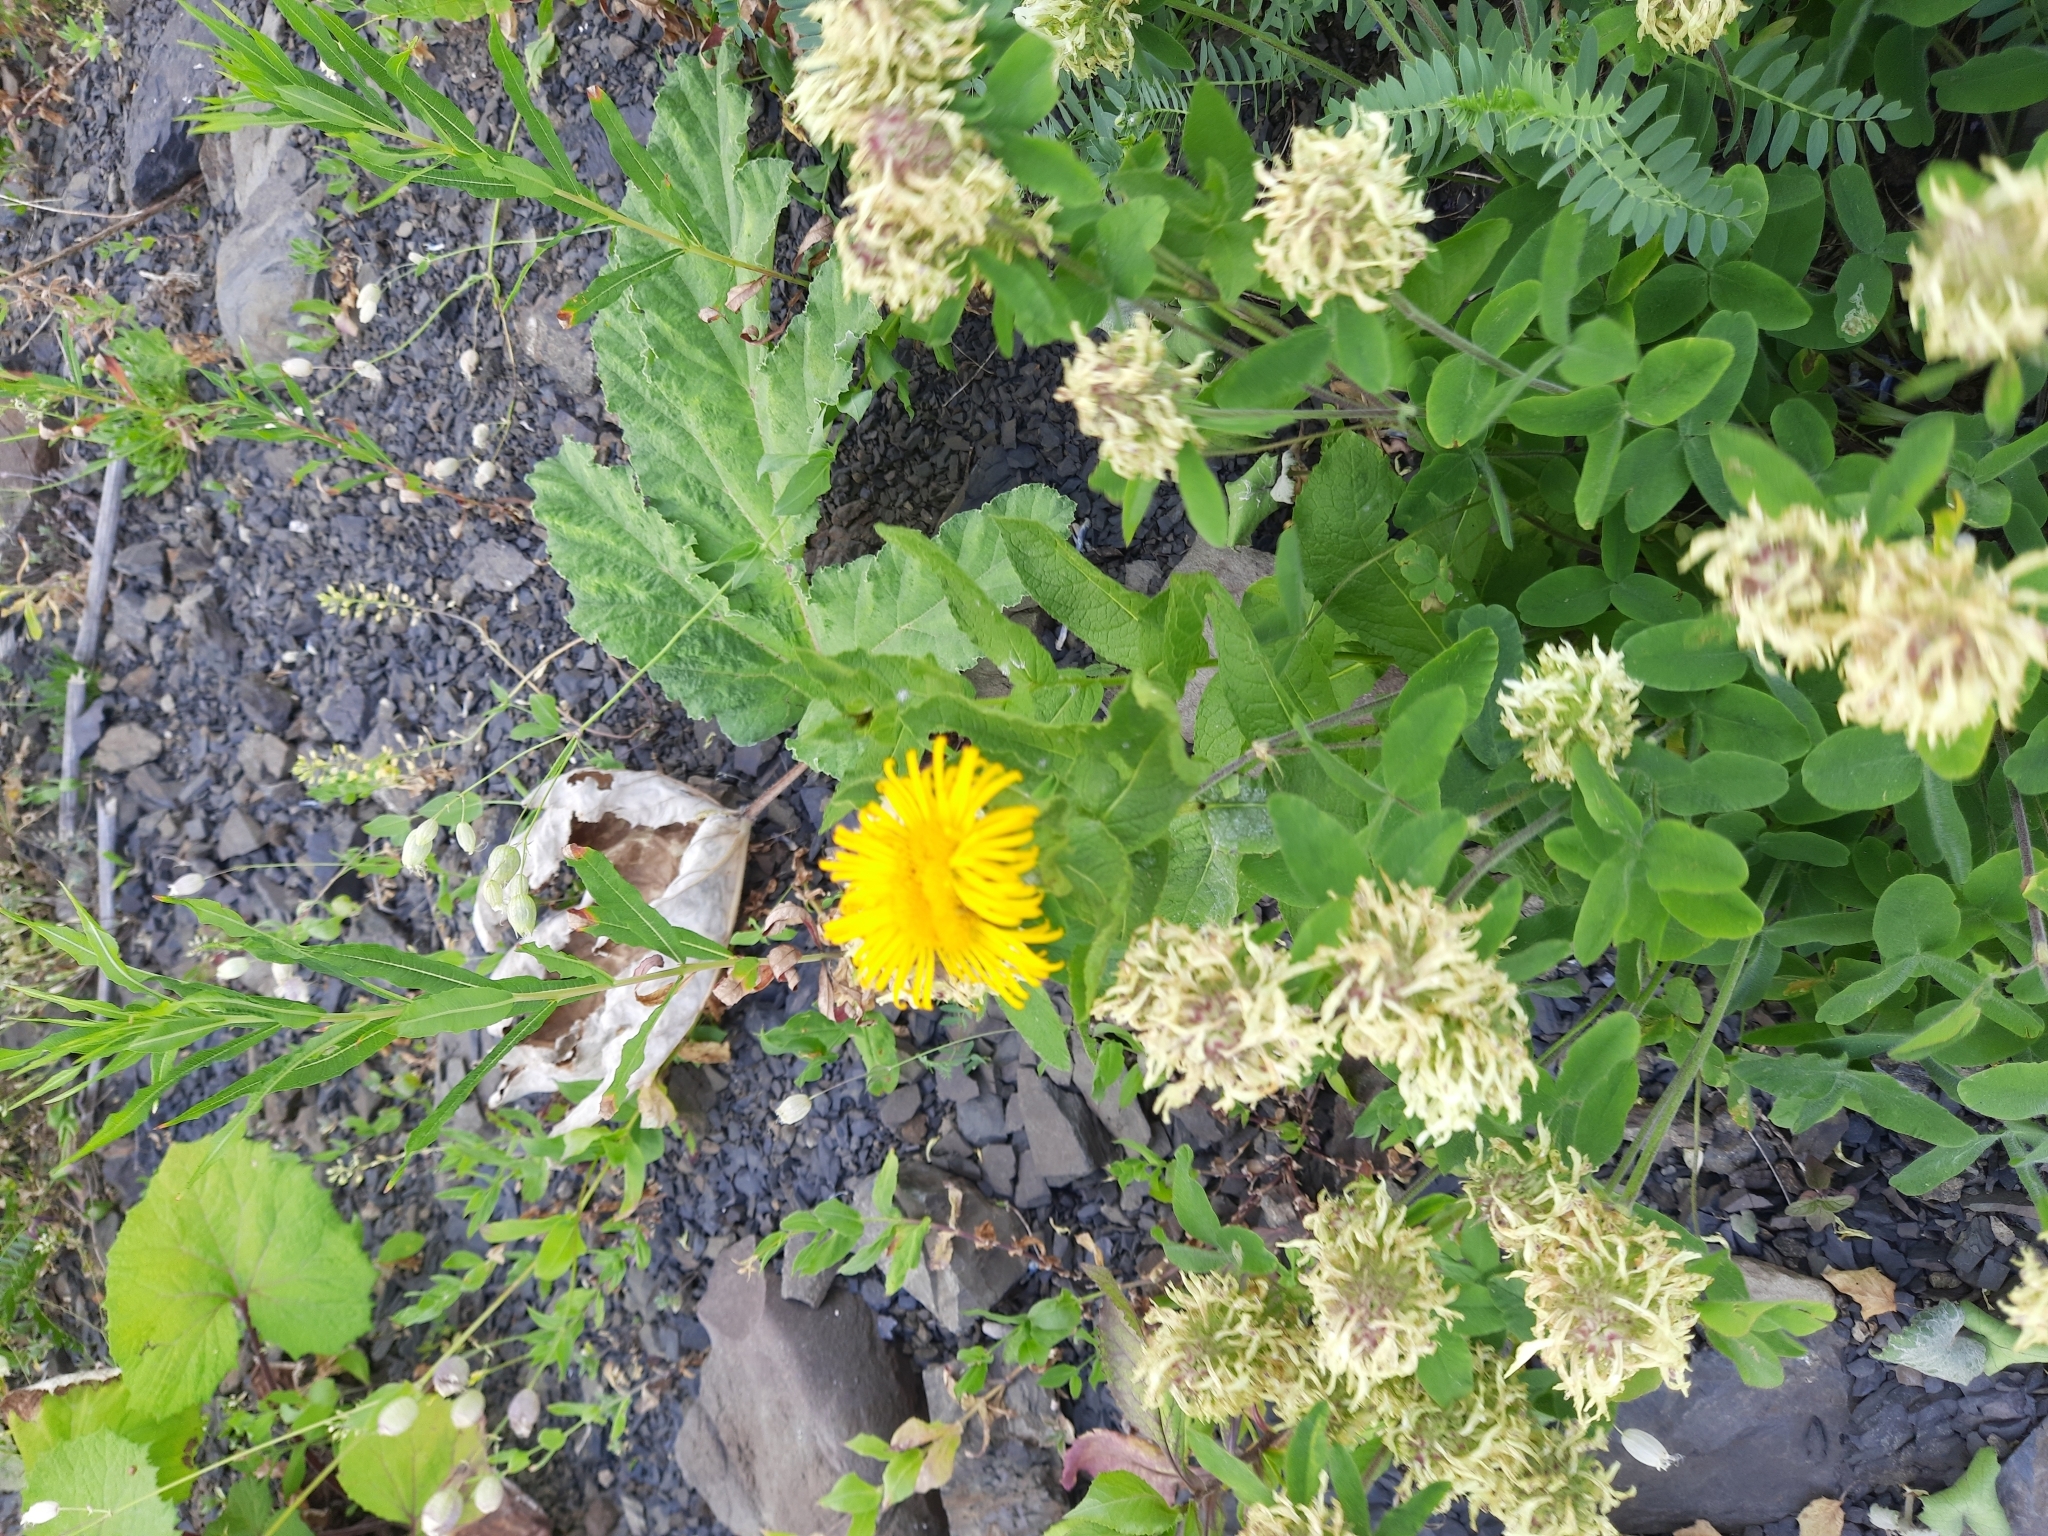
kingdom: Plantae
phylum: Tracheophyta
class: Magnoliopsida
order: Asterales
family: Asteraceae
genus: Pentanema
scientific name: Pentanema orientale
